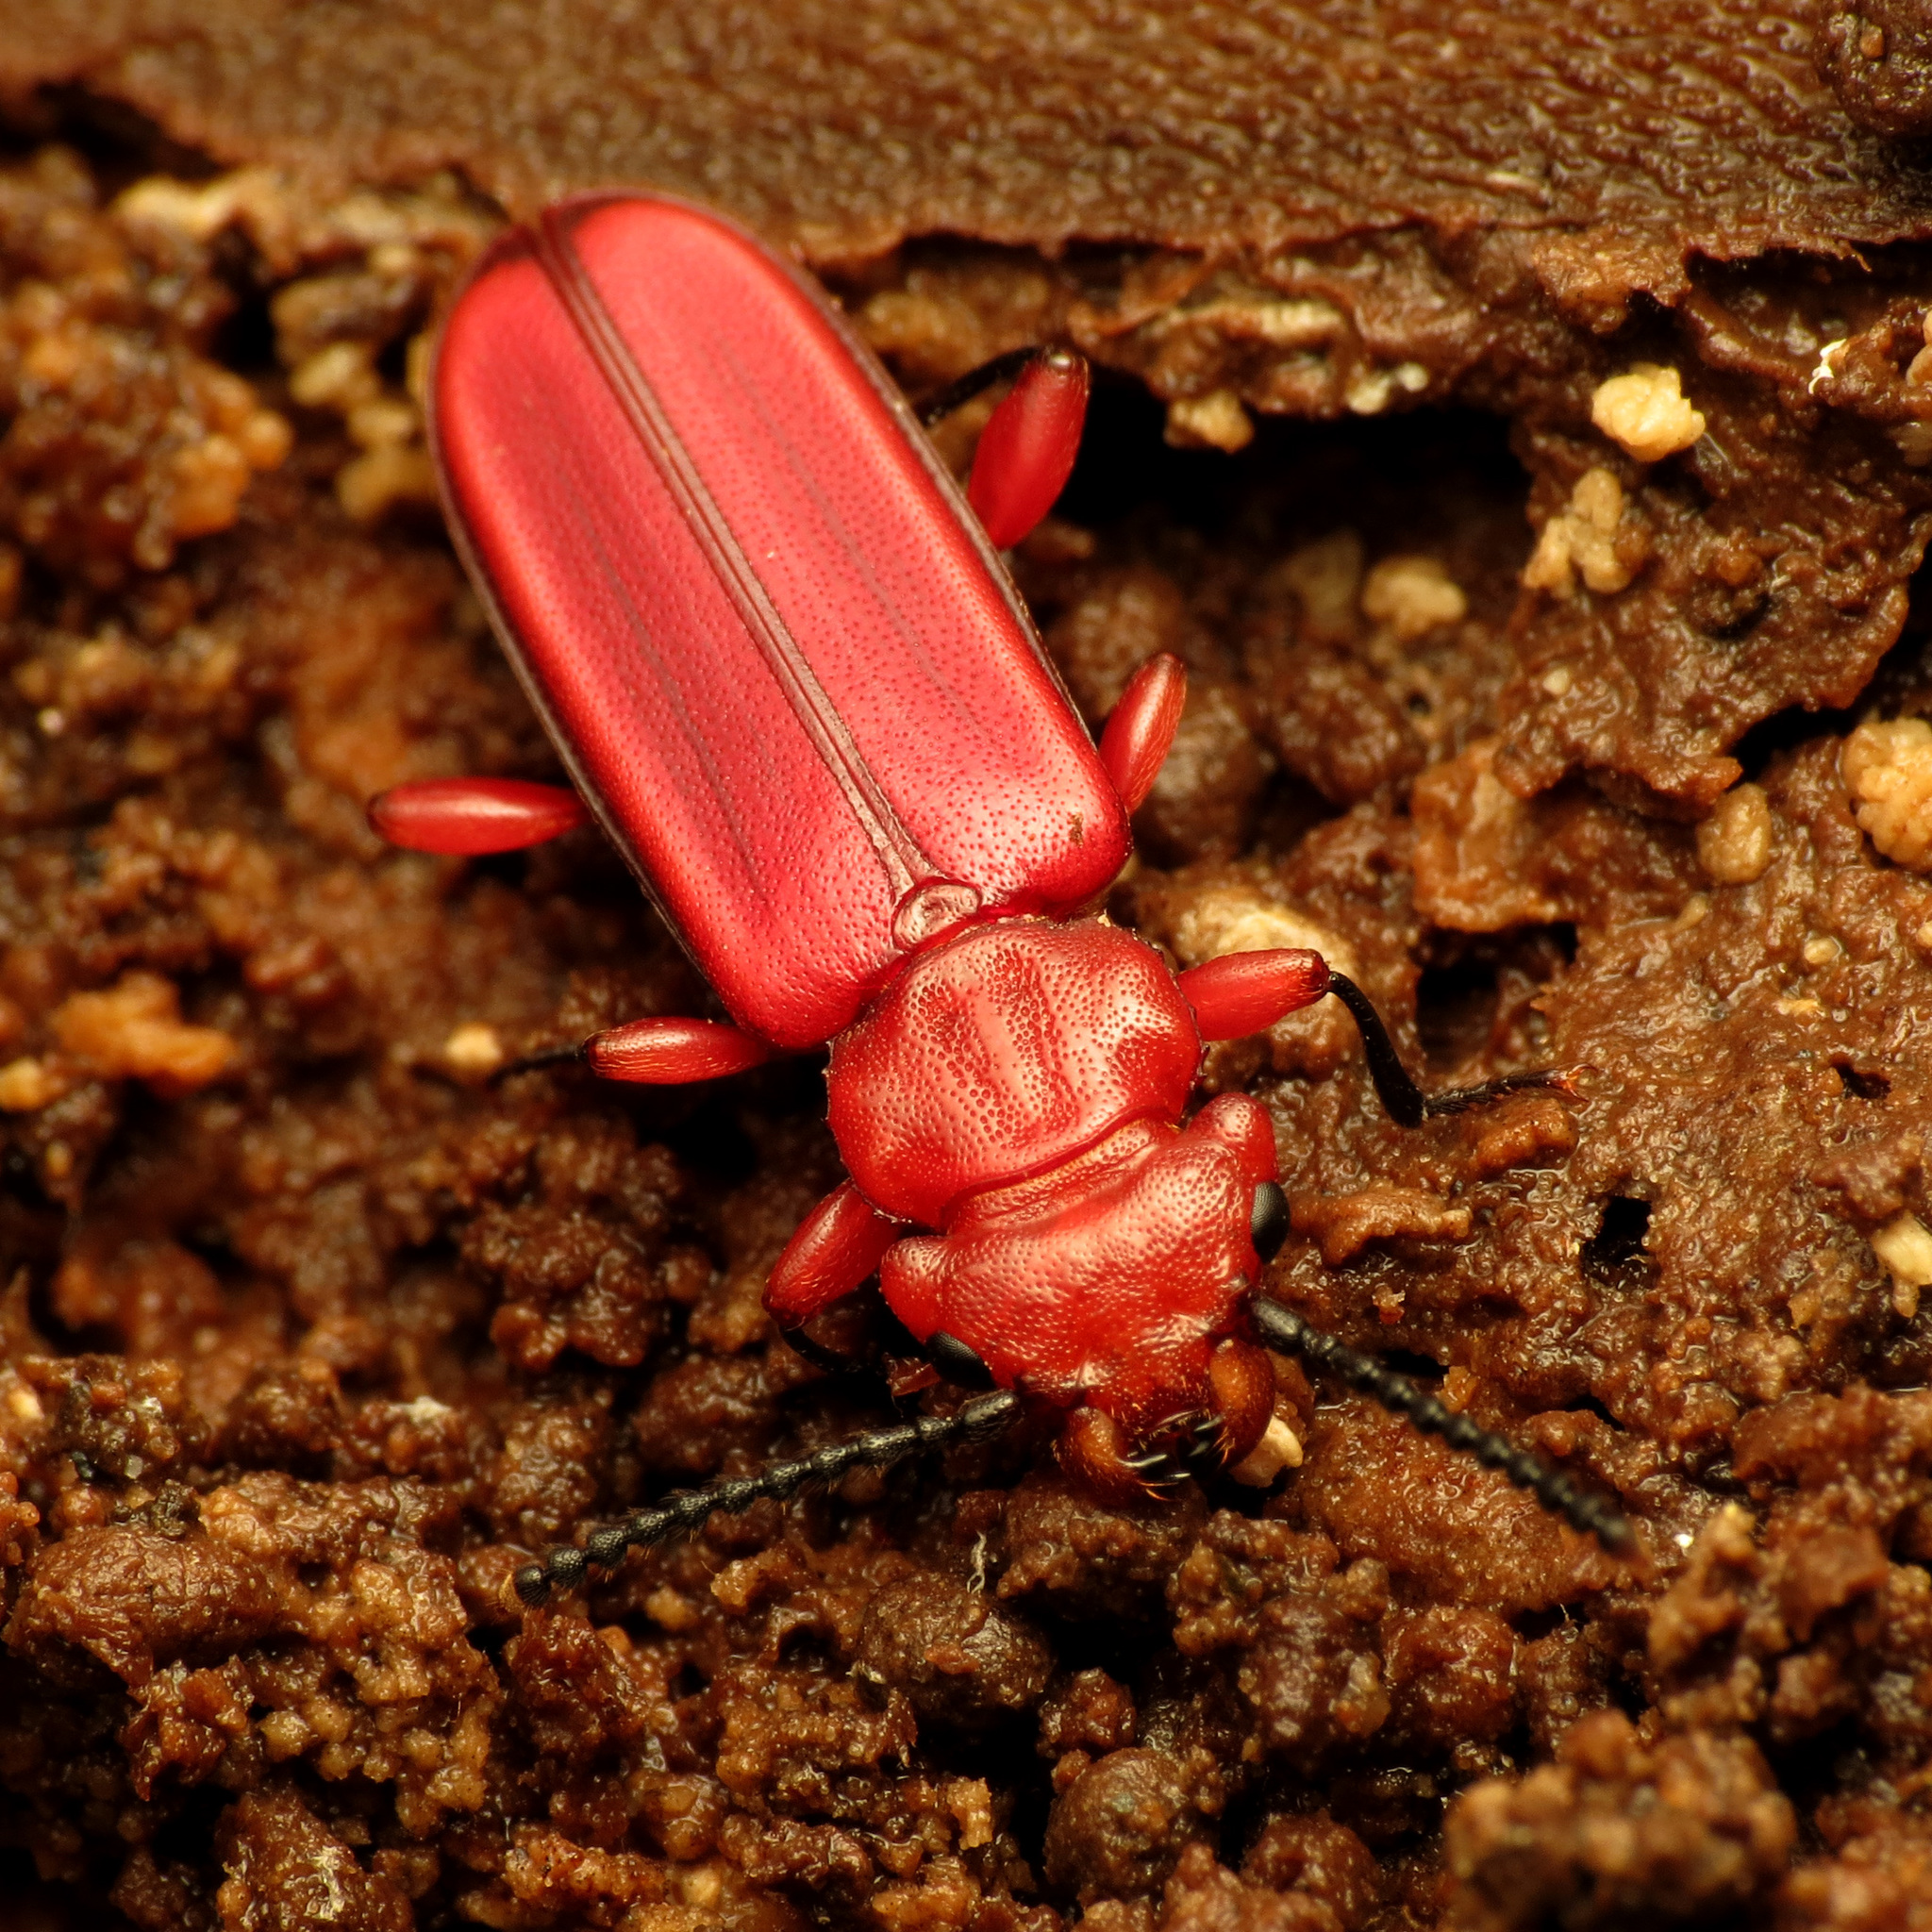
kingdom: Animalia
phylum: Arthropoda
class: Insecta
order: Coleoptera
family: Cucujidae
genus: Cucujus
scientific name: Cucujus clavipes
